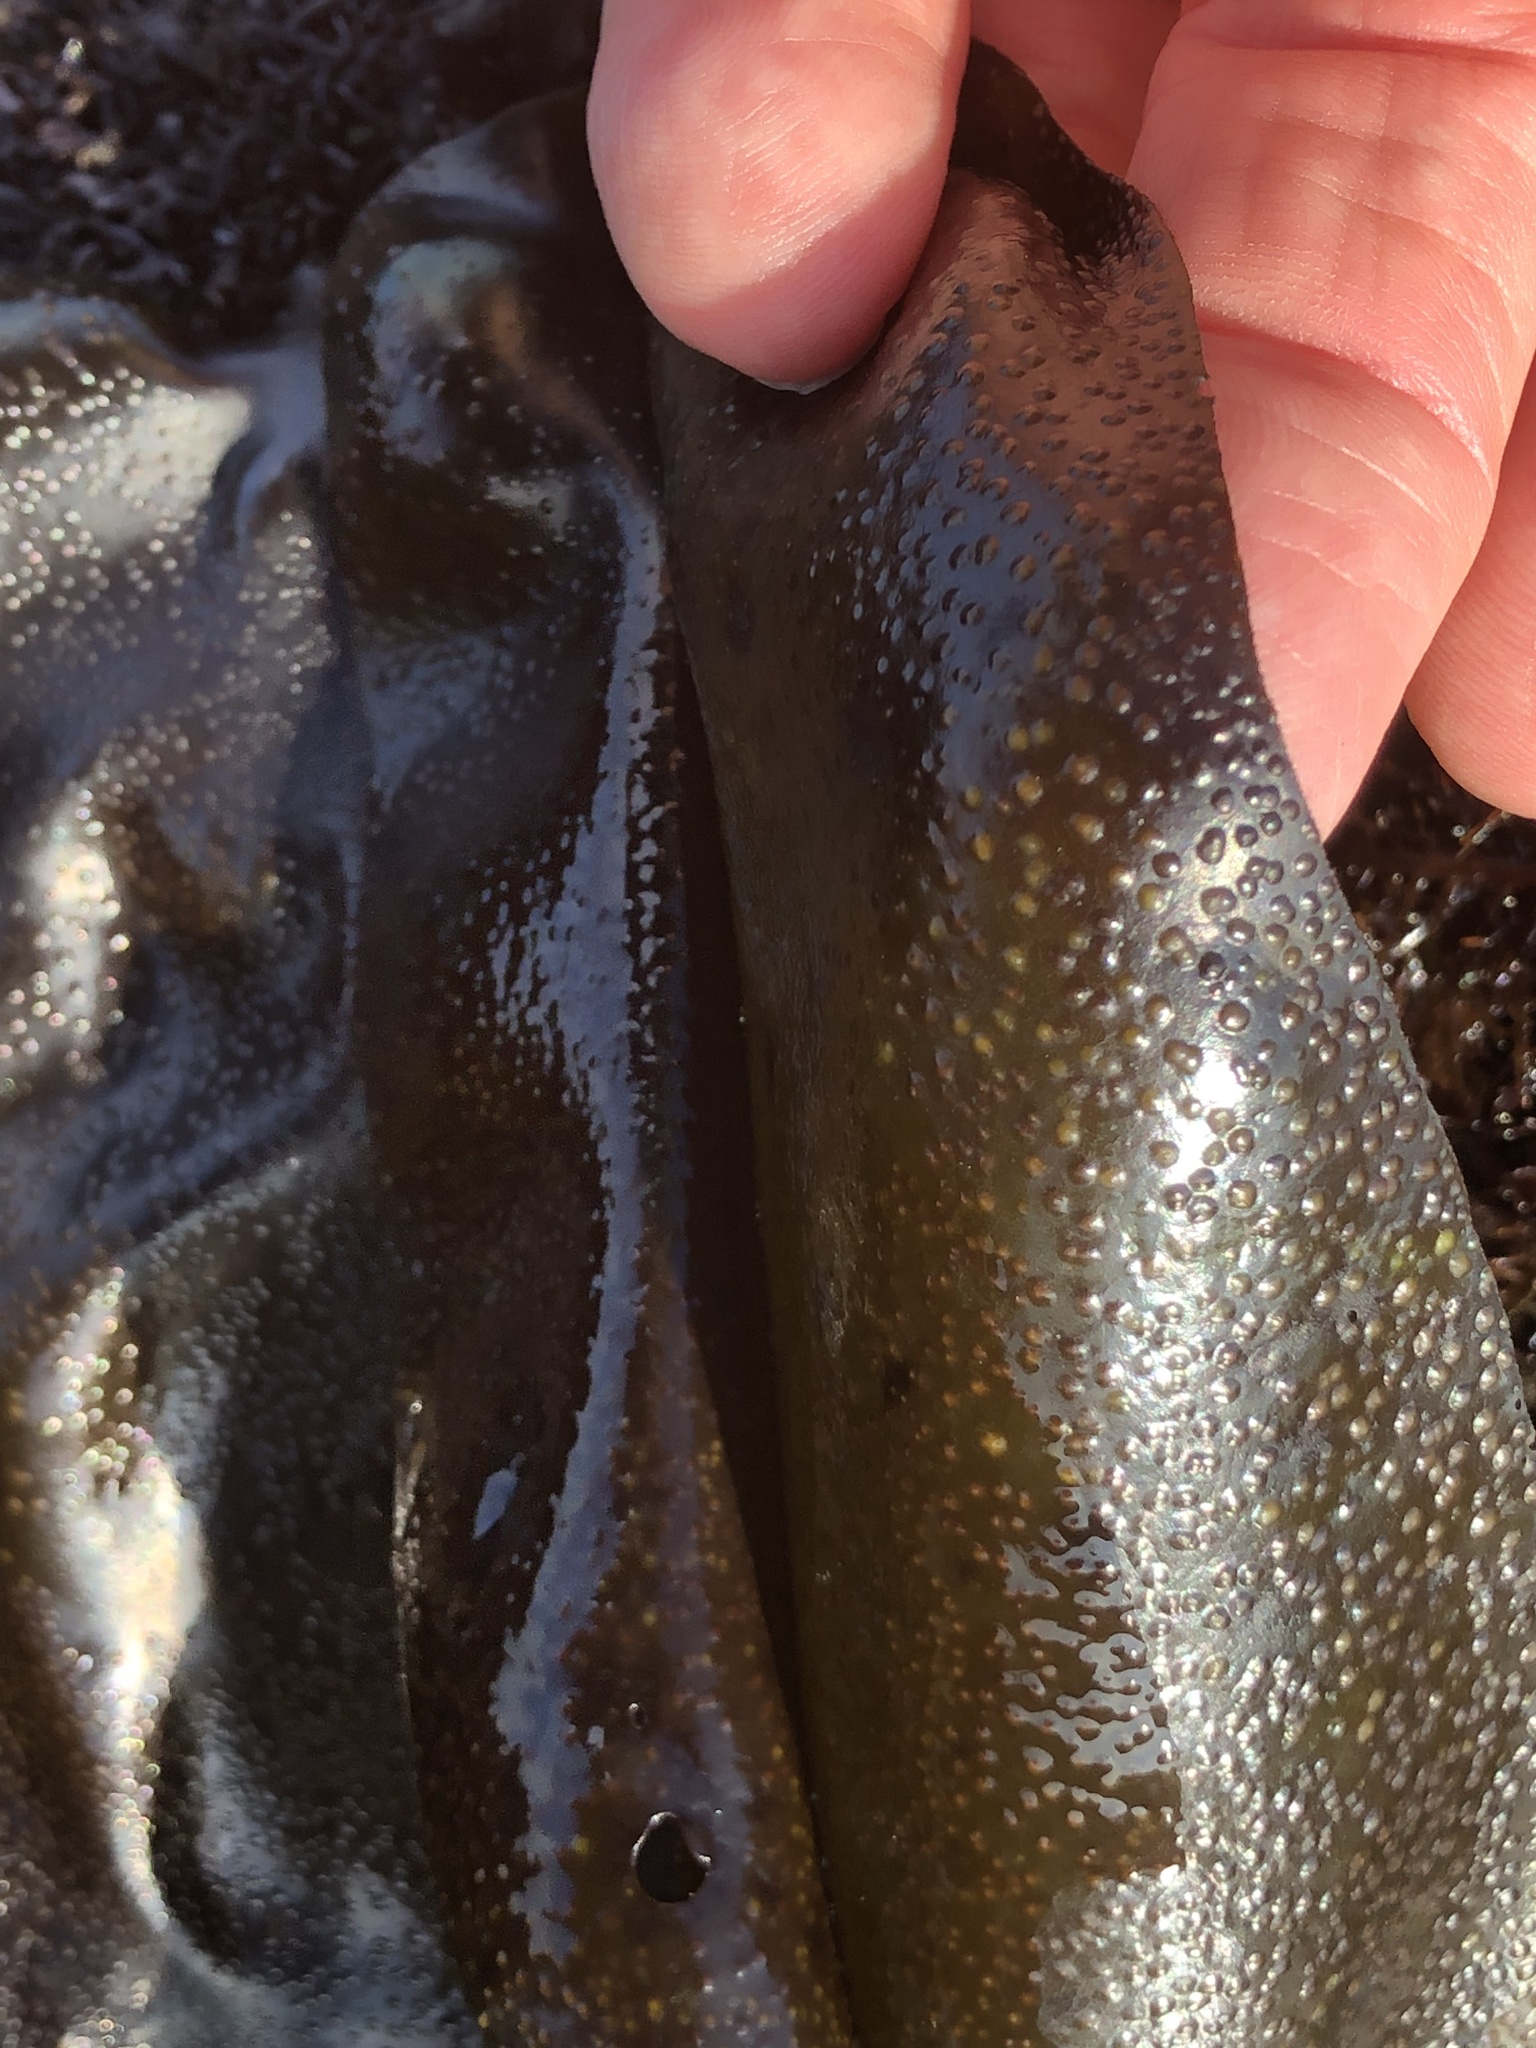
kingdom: Plantae
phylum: Rhodophyta
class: Florideophyceae
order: Gigartinales
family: Gigartinaceae
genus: Mazzaella
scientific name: Mazzaella flaccida
